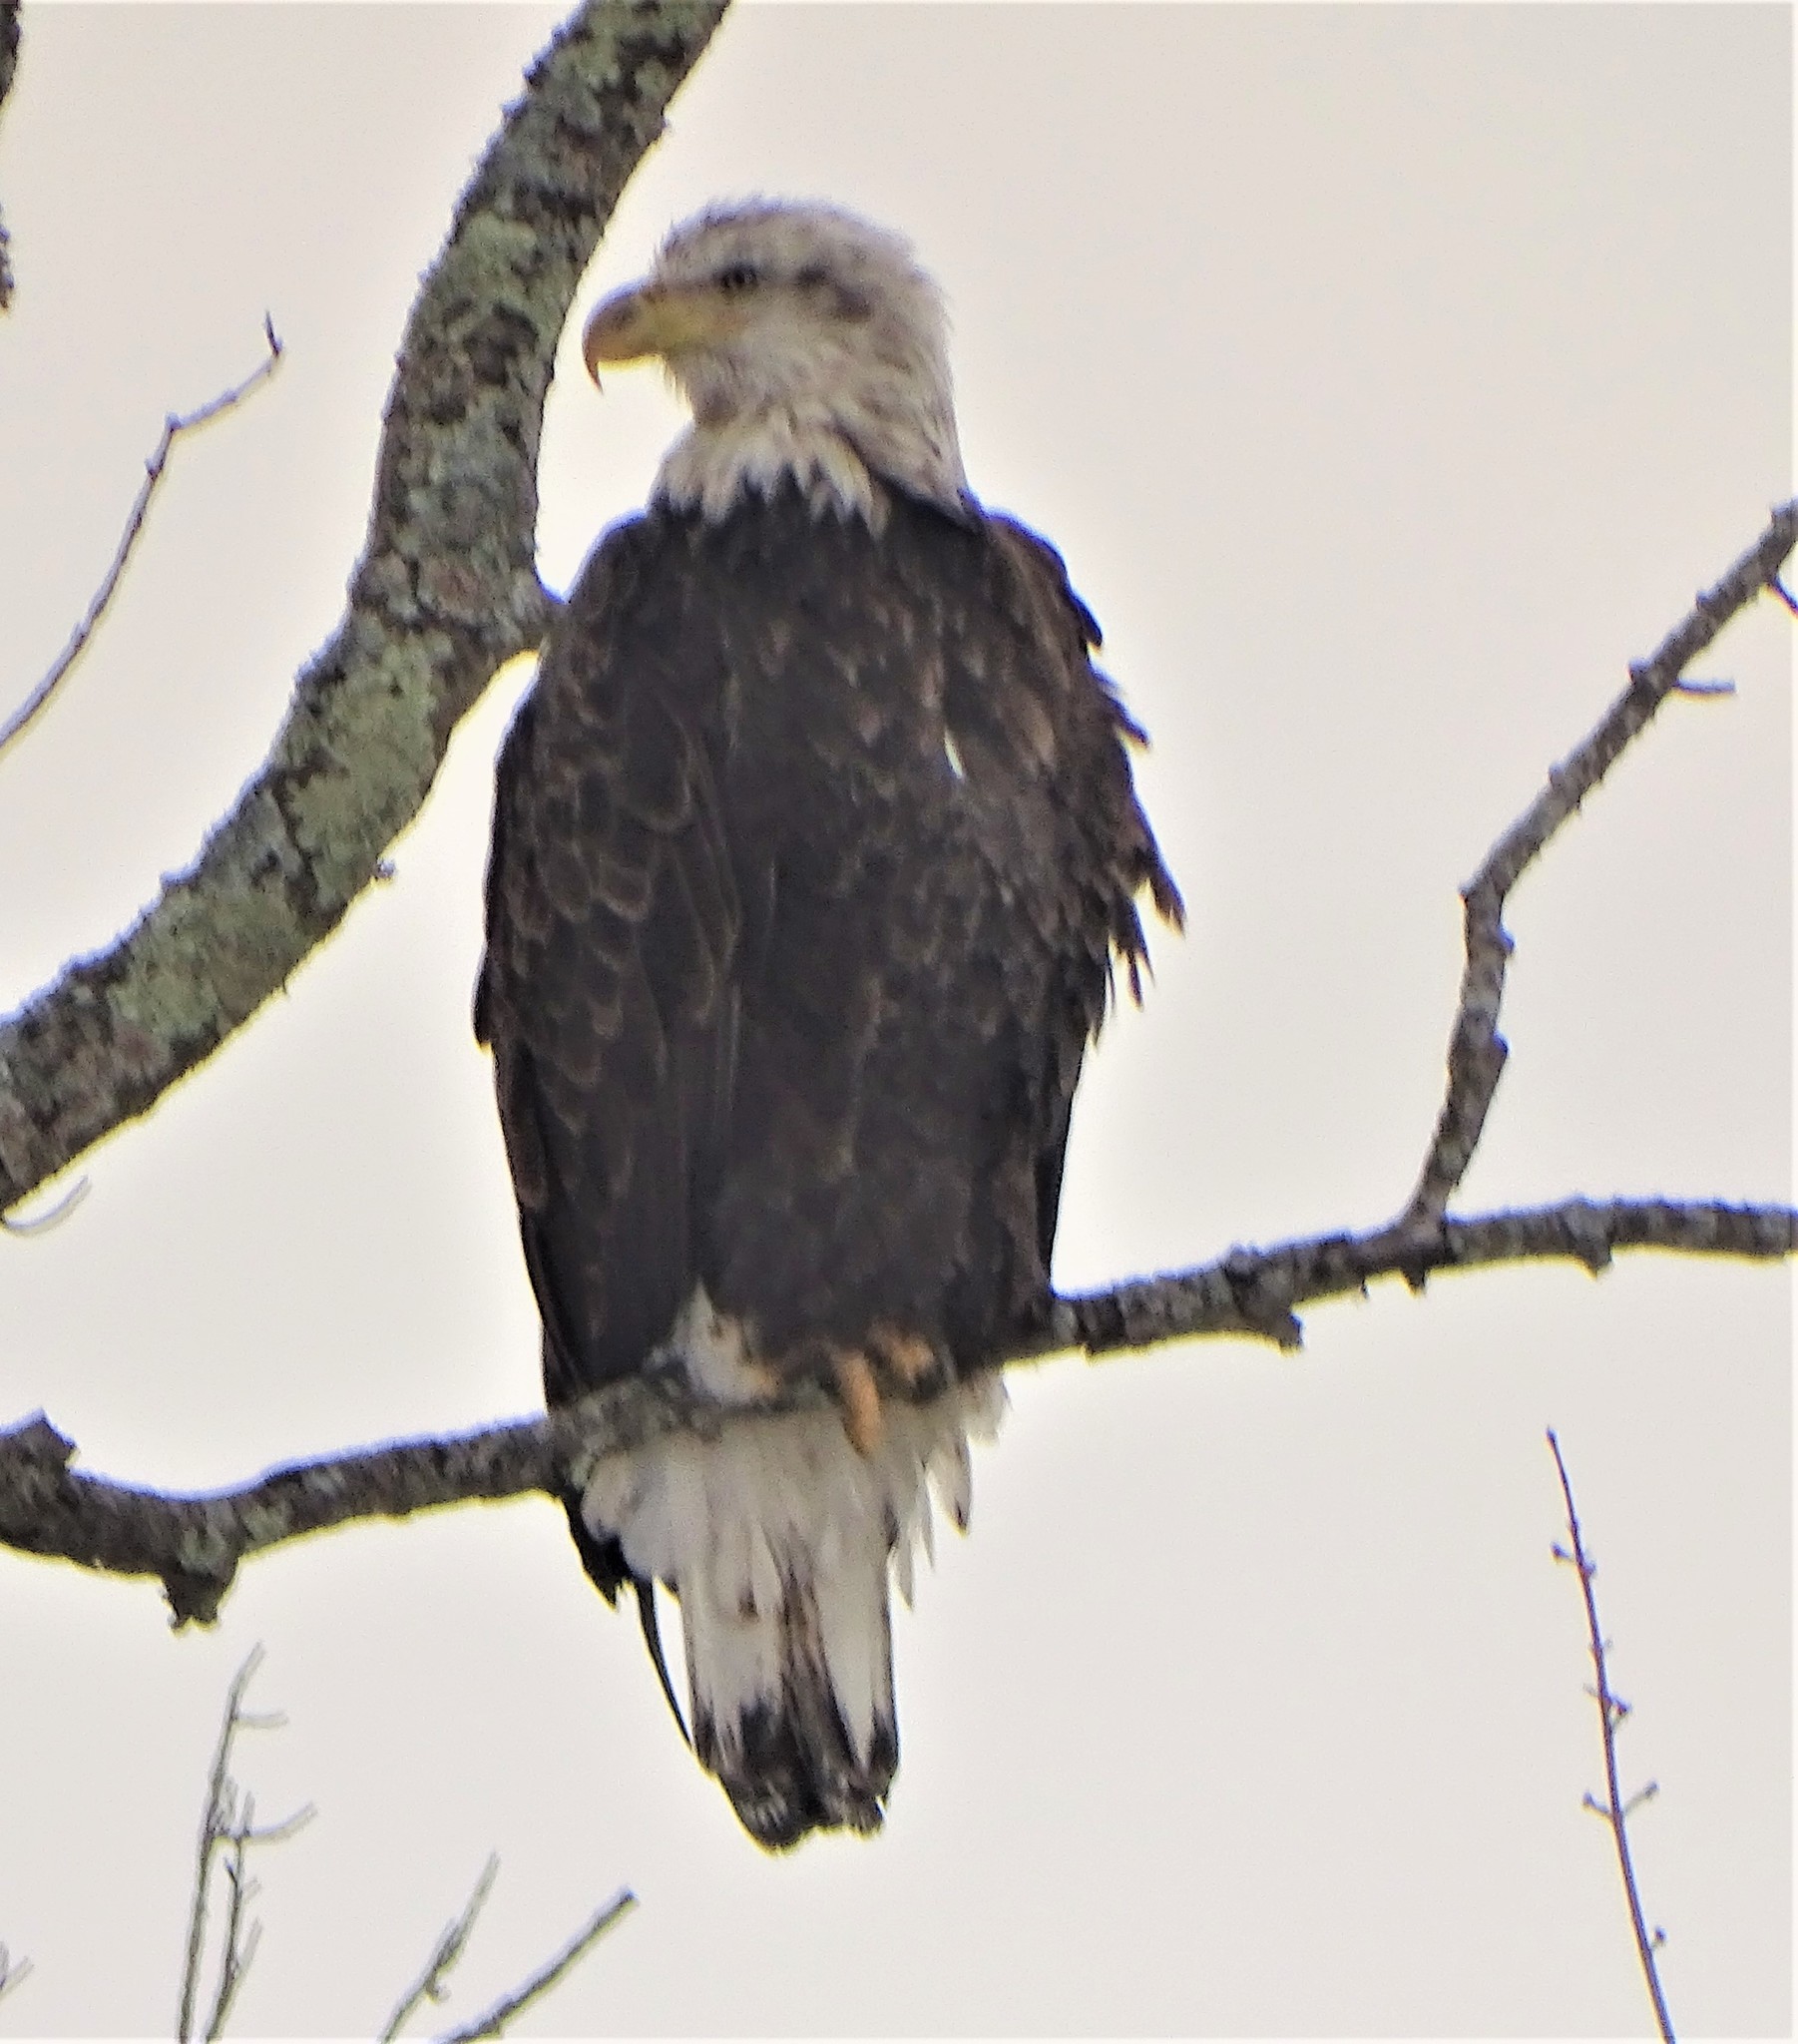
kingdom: Animalia
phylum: Chordata
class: Aves
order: Accipitriformes
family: Accipitridae
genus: Haliaeetus
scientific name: Haliaeetus leucocephalus
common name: Bald eagle
